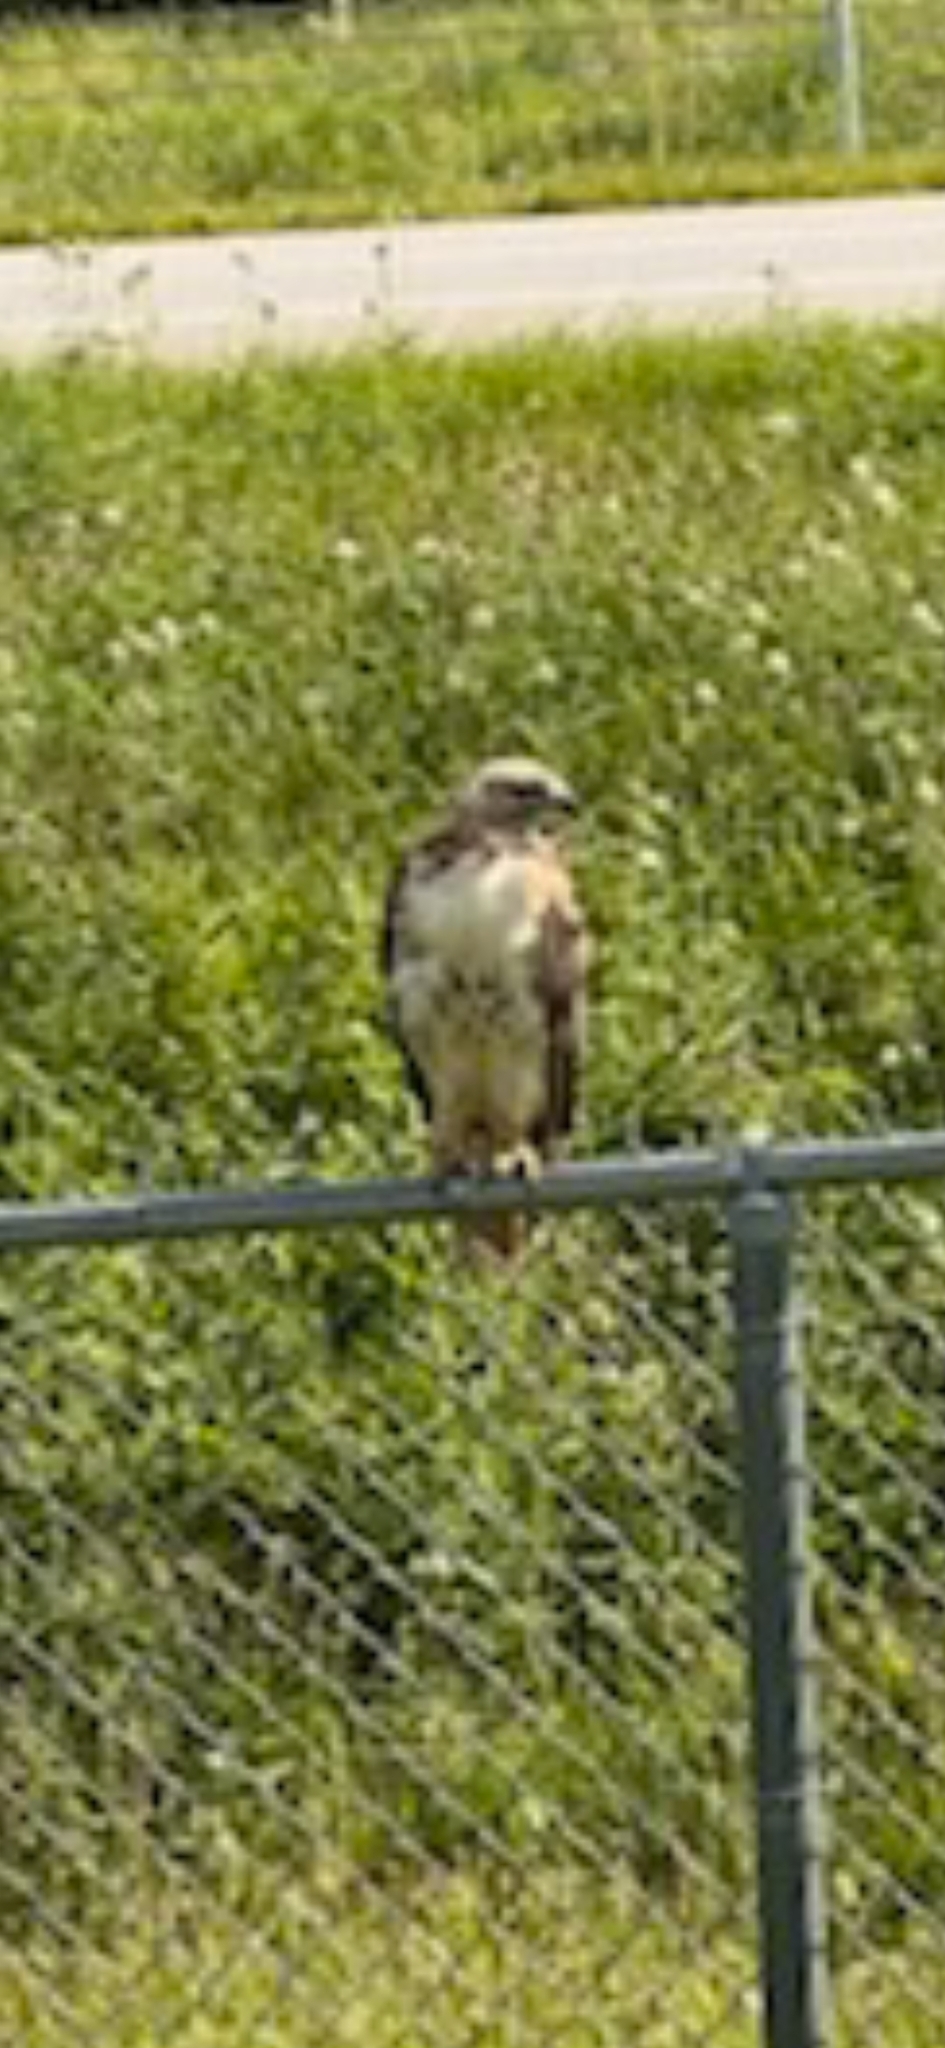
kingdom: Animalia
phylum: Chordata
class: Aves
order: Accipitriformes
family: Accipitridae
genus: Buteo
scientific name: Buteo jamaicensis
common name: Red-tailed hawk
